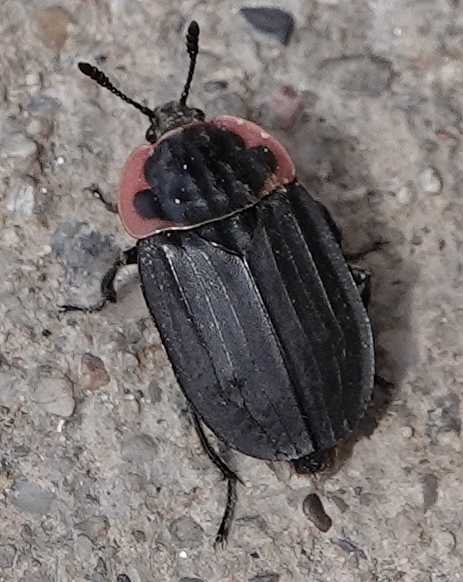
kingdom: Animalia
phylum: Arthropoda
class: Insecta
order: Coleoptera
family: Staphylinidae
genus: Oiceoptoma
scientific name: Oiceoptoma noveboracense
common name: Margined carrion beetle
